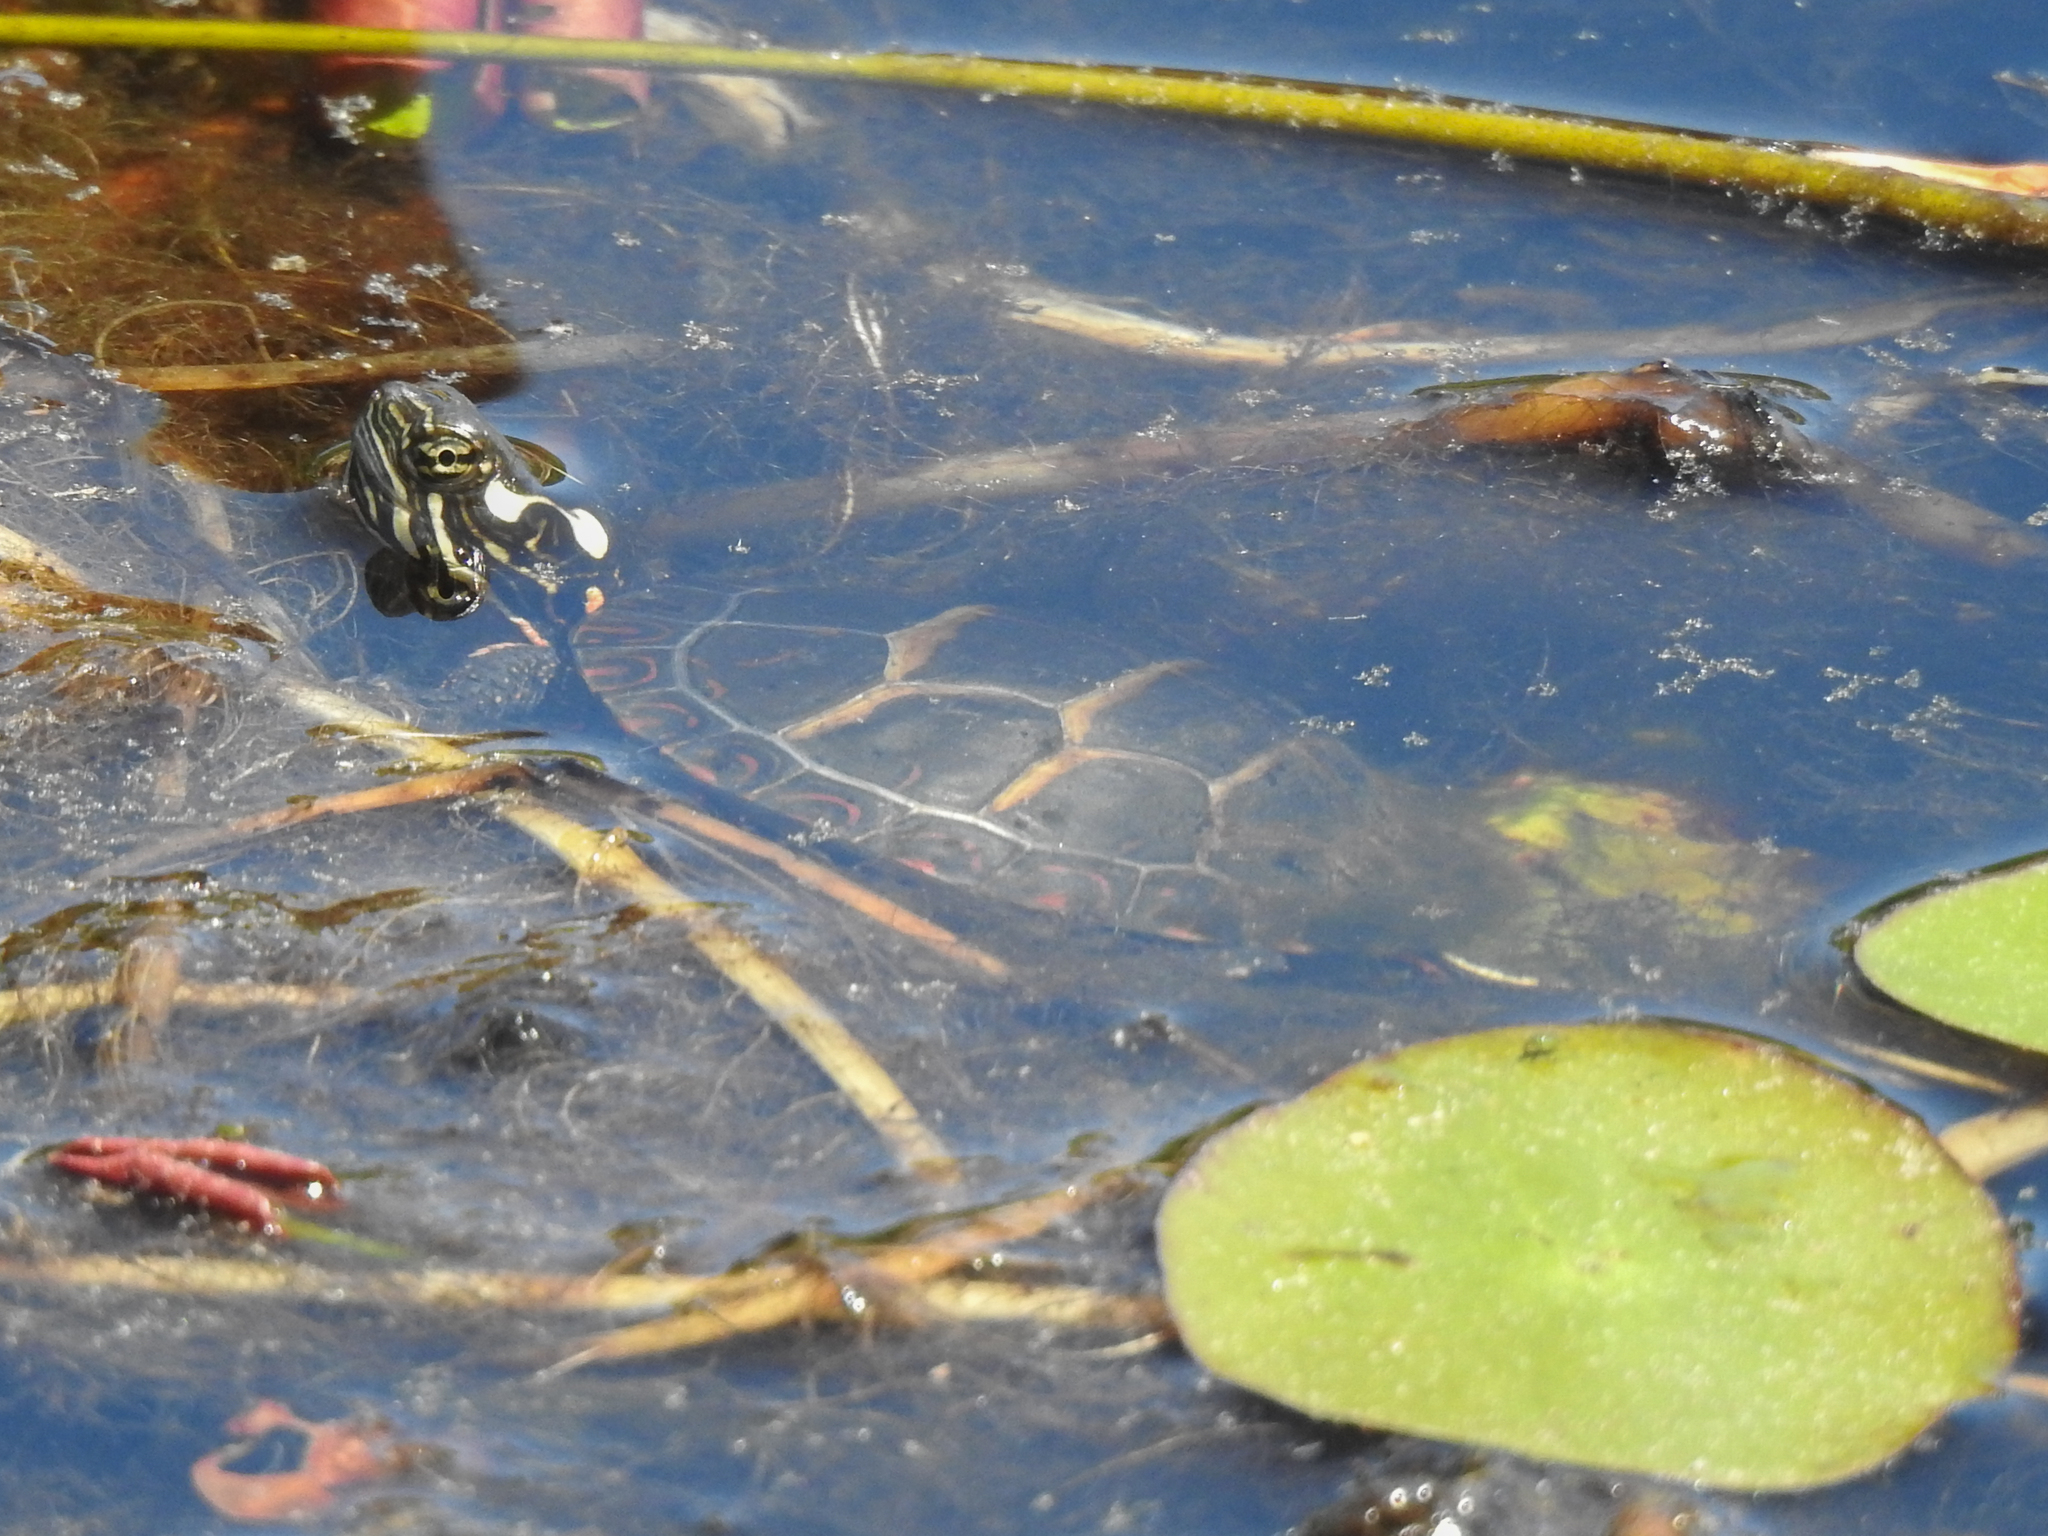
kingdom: Animalia
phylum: Chordata
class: Testudines
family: Emydidae
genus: Chrysemys
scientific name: Chrysemys picta
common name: Painted turtle
